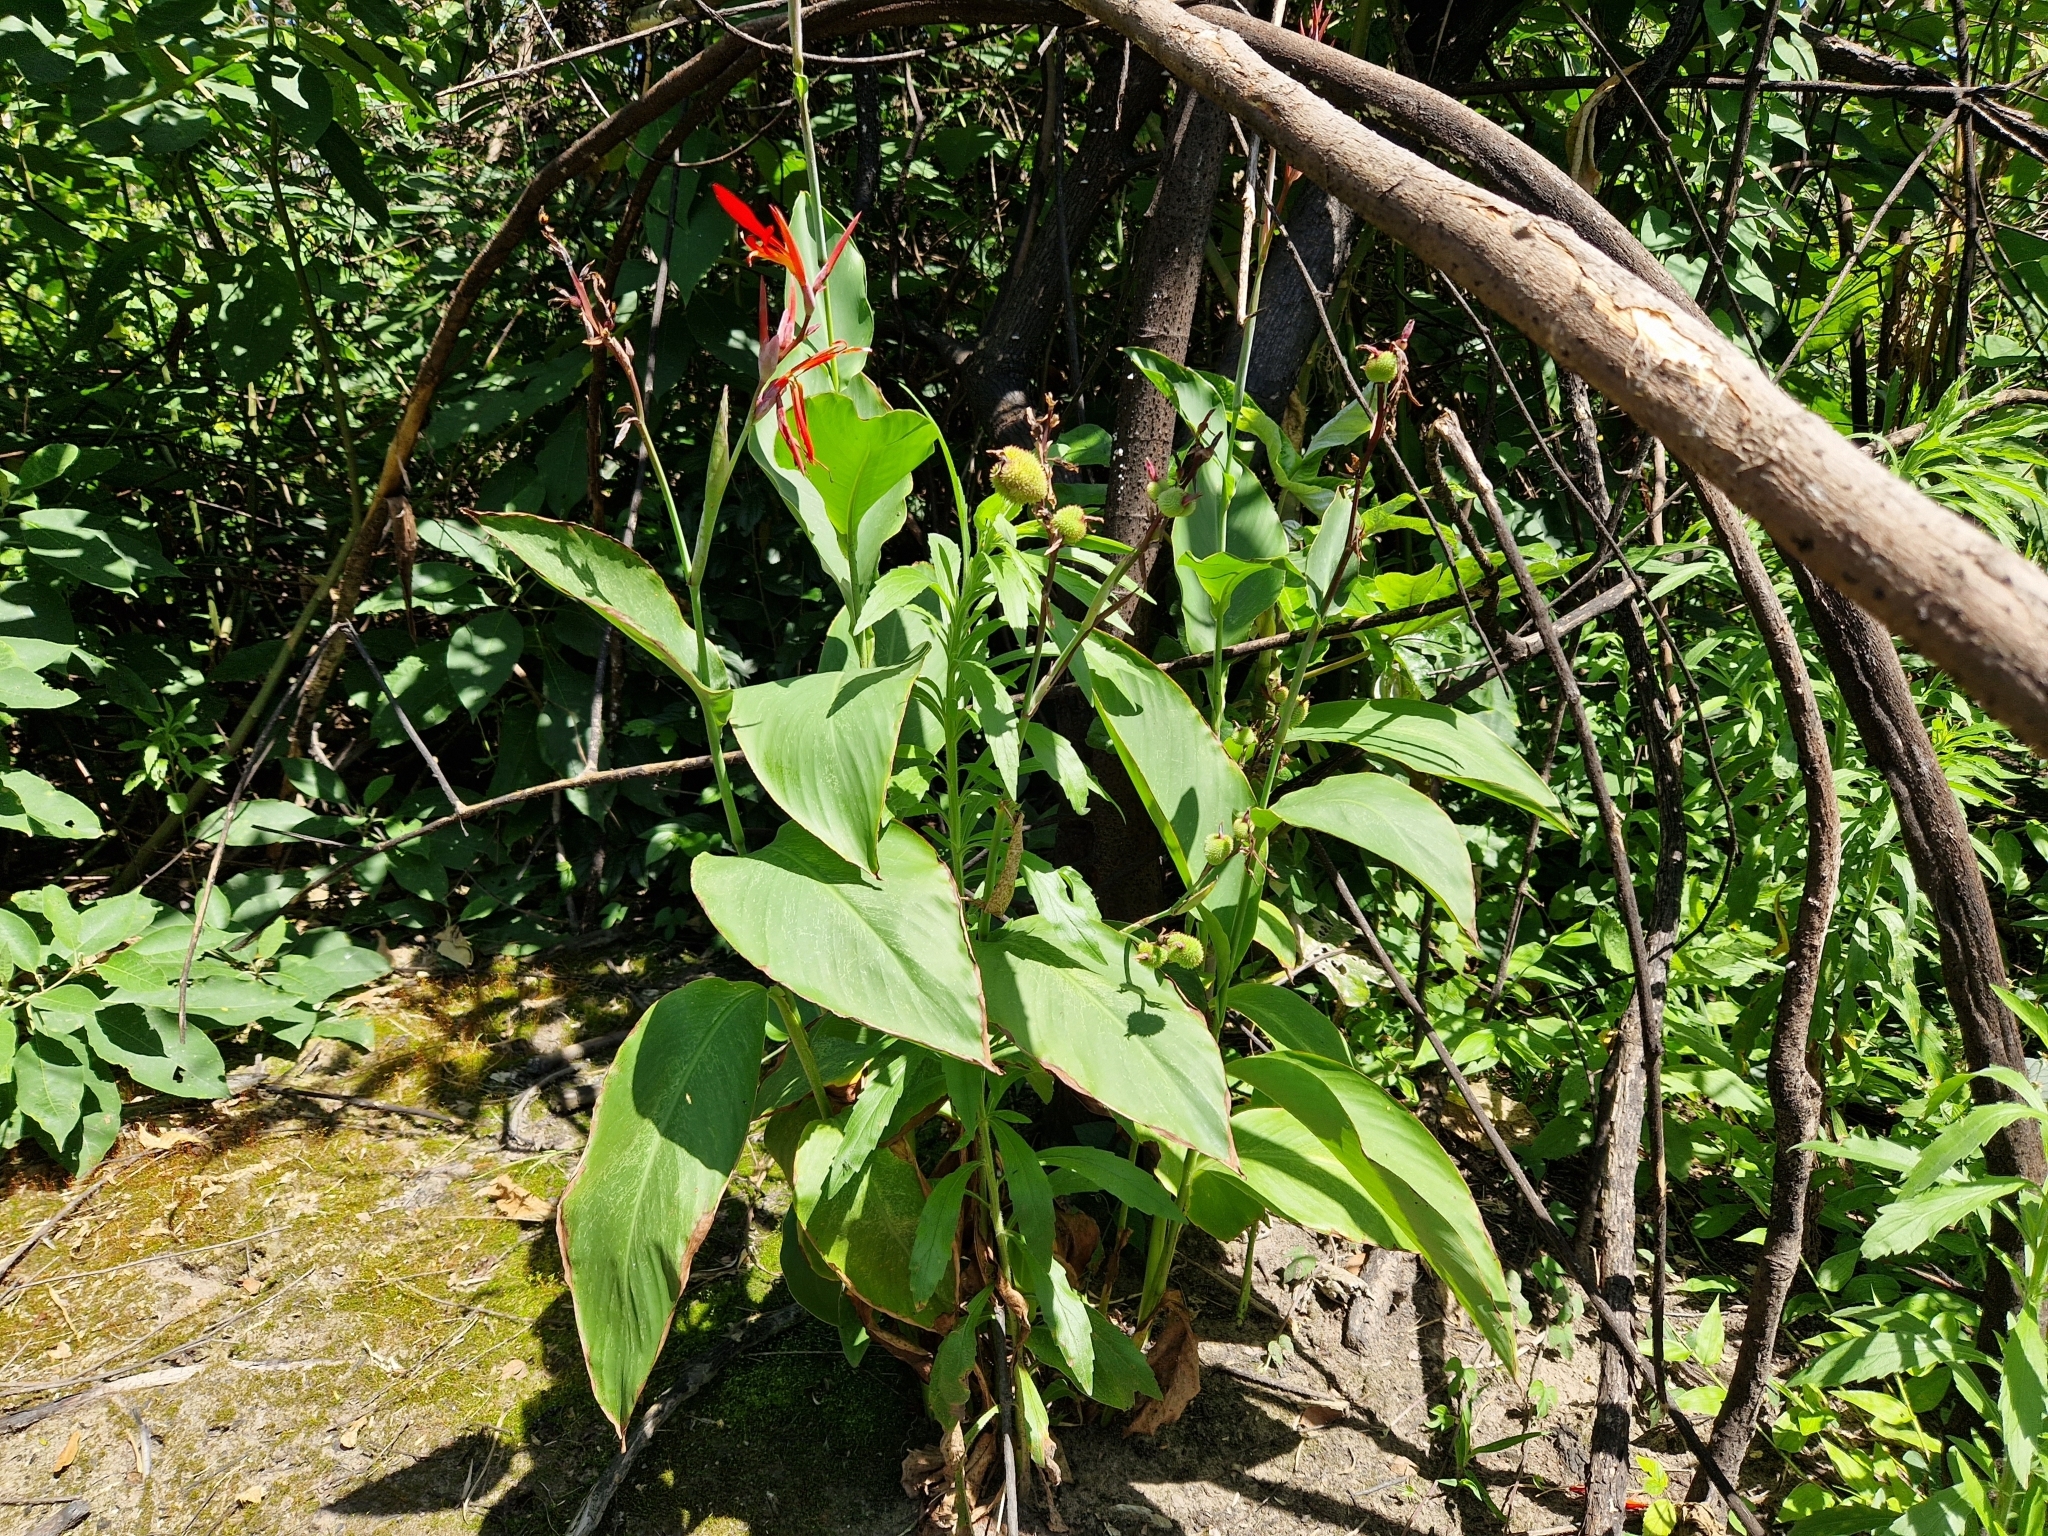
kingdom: Plantae
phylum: Tracheophyta
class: Liliopsida
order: Zingiberales
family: Cannaceae
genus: Canna
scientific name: Canna indica
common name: Indian shot
